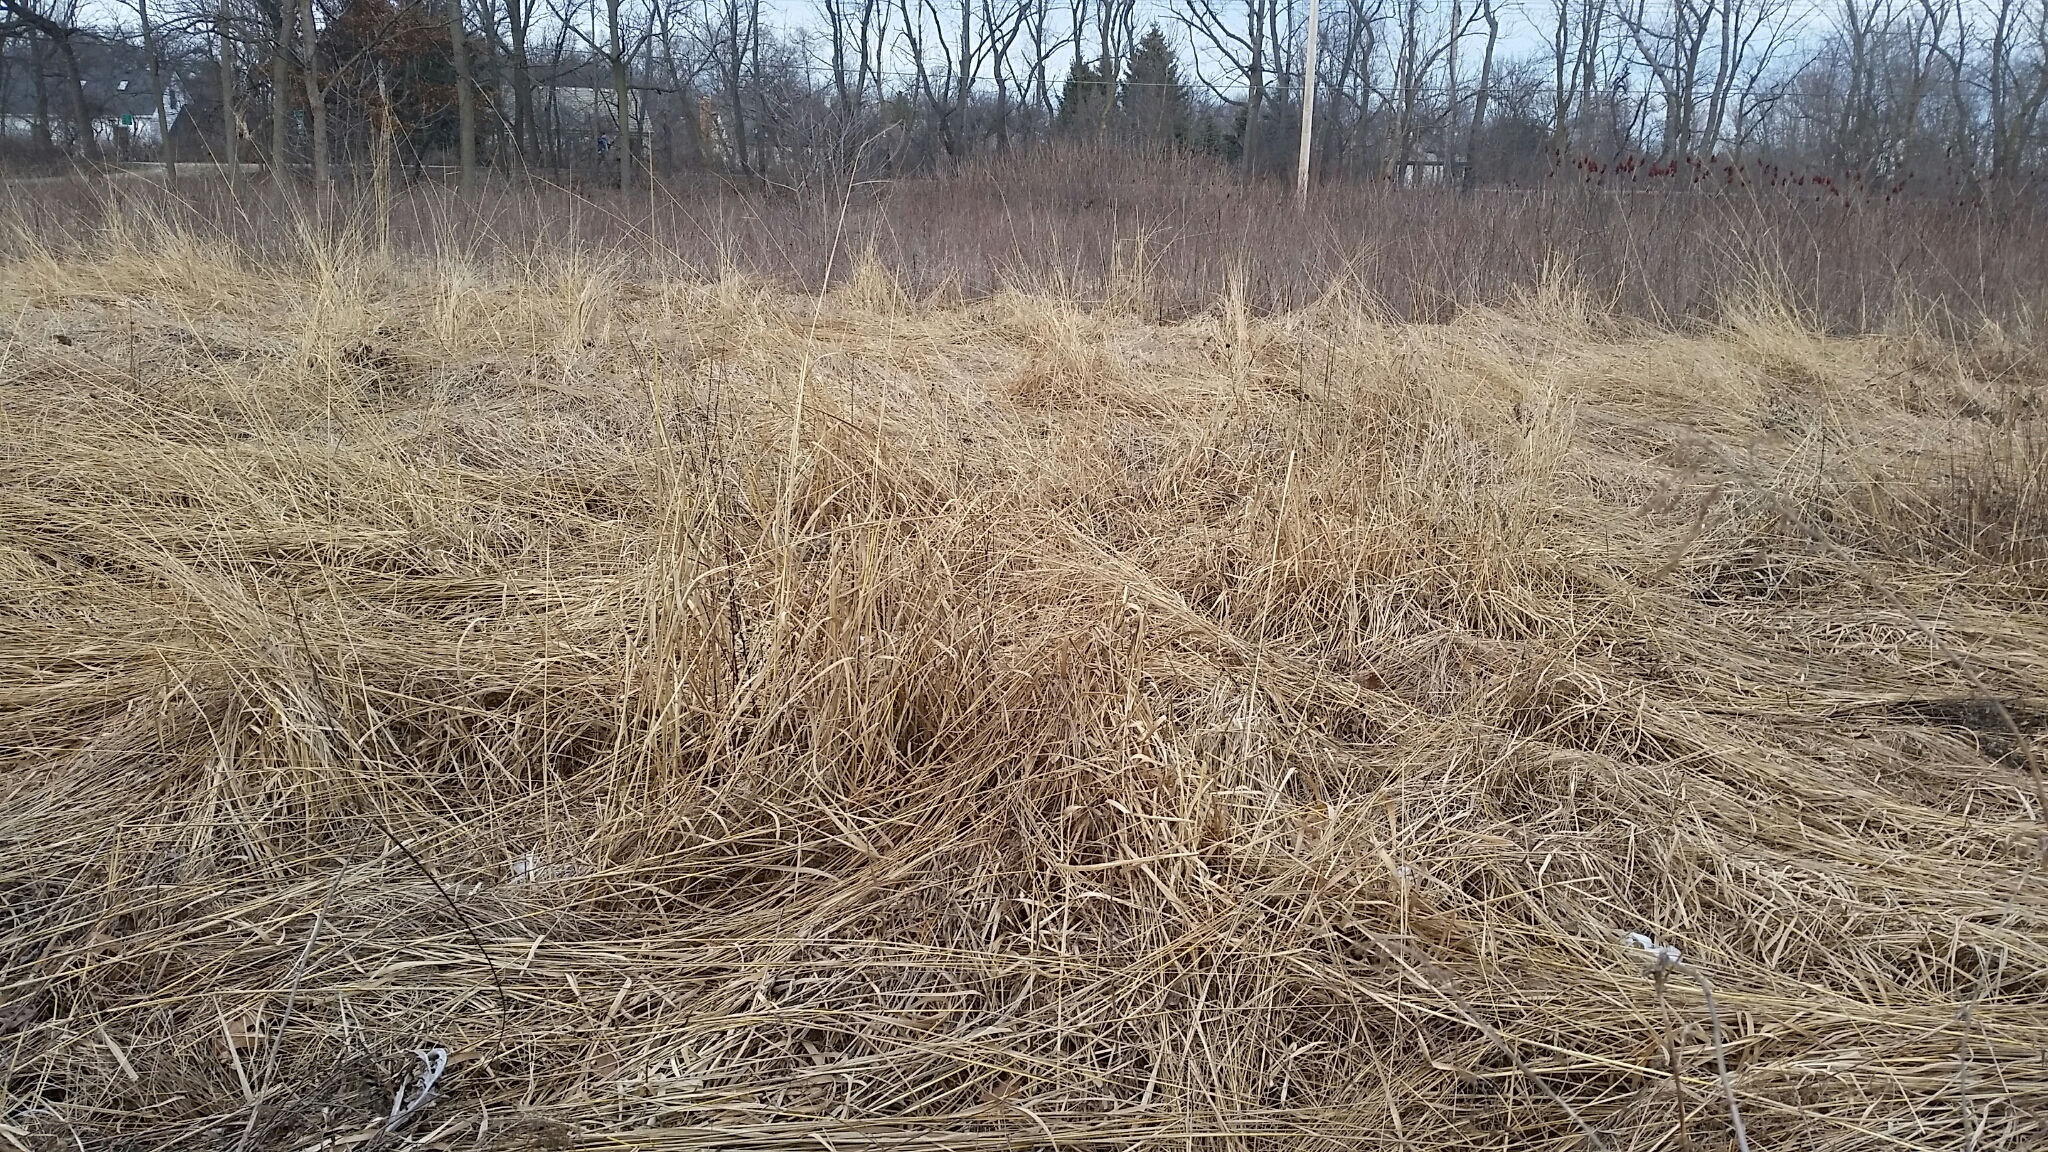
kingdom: Plantae
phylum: Tracheophyta
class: Liliopsida
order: Poales
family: Poaceae
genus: Sorghastrum
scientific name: Sorghastrum nutans
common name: Indian grass
